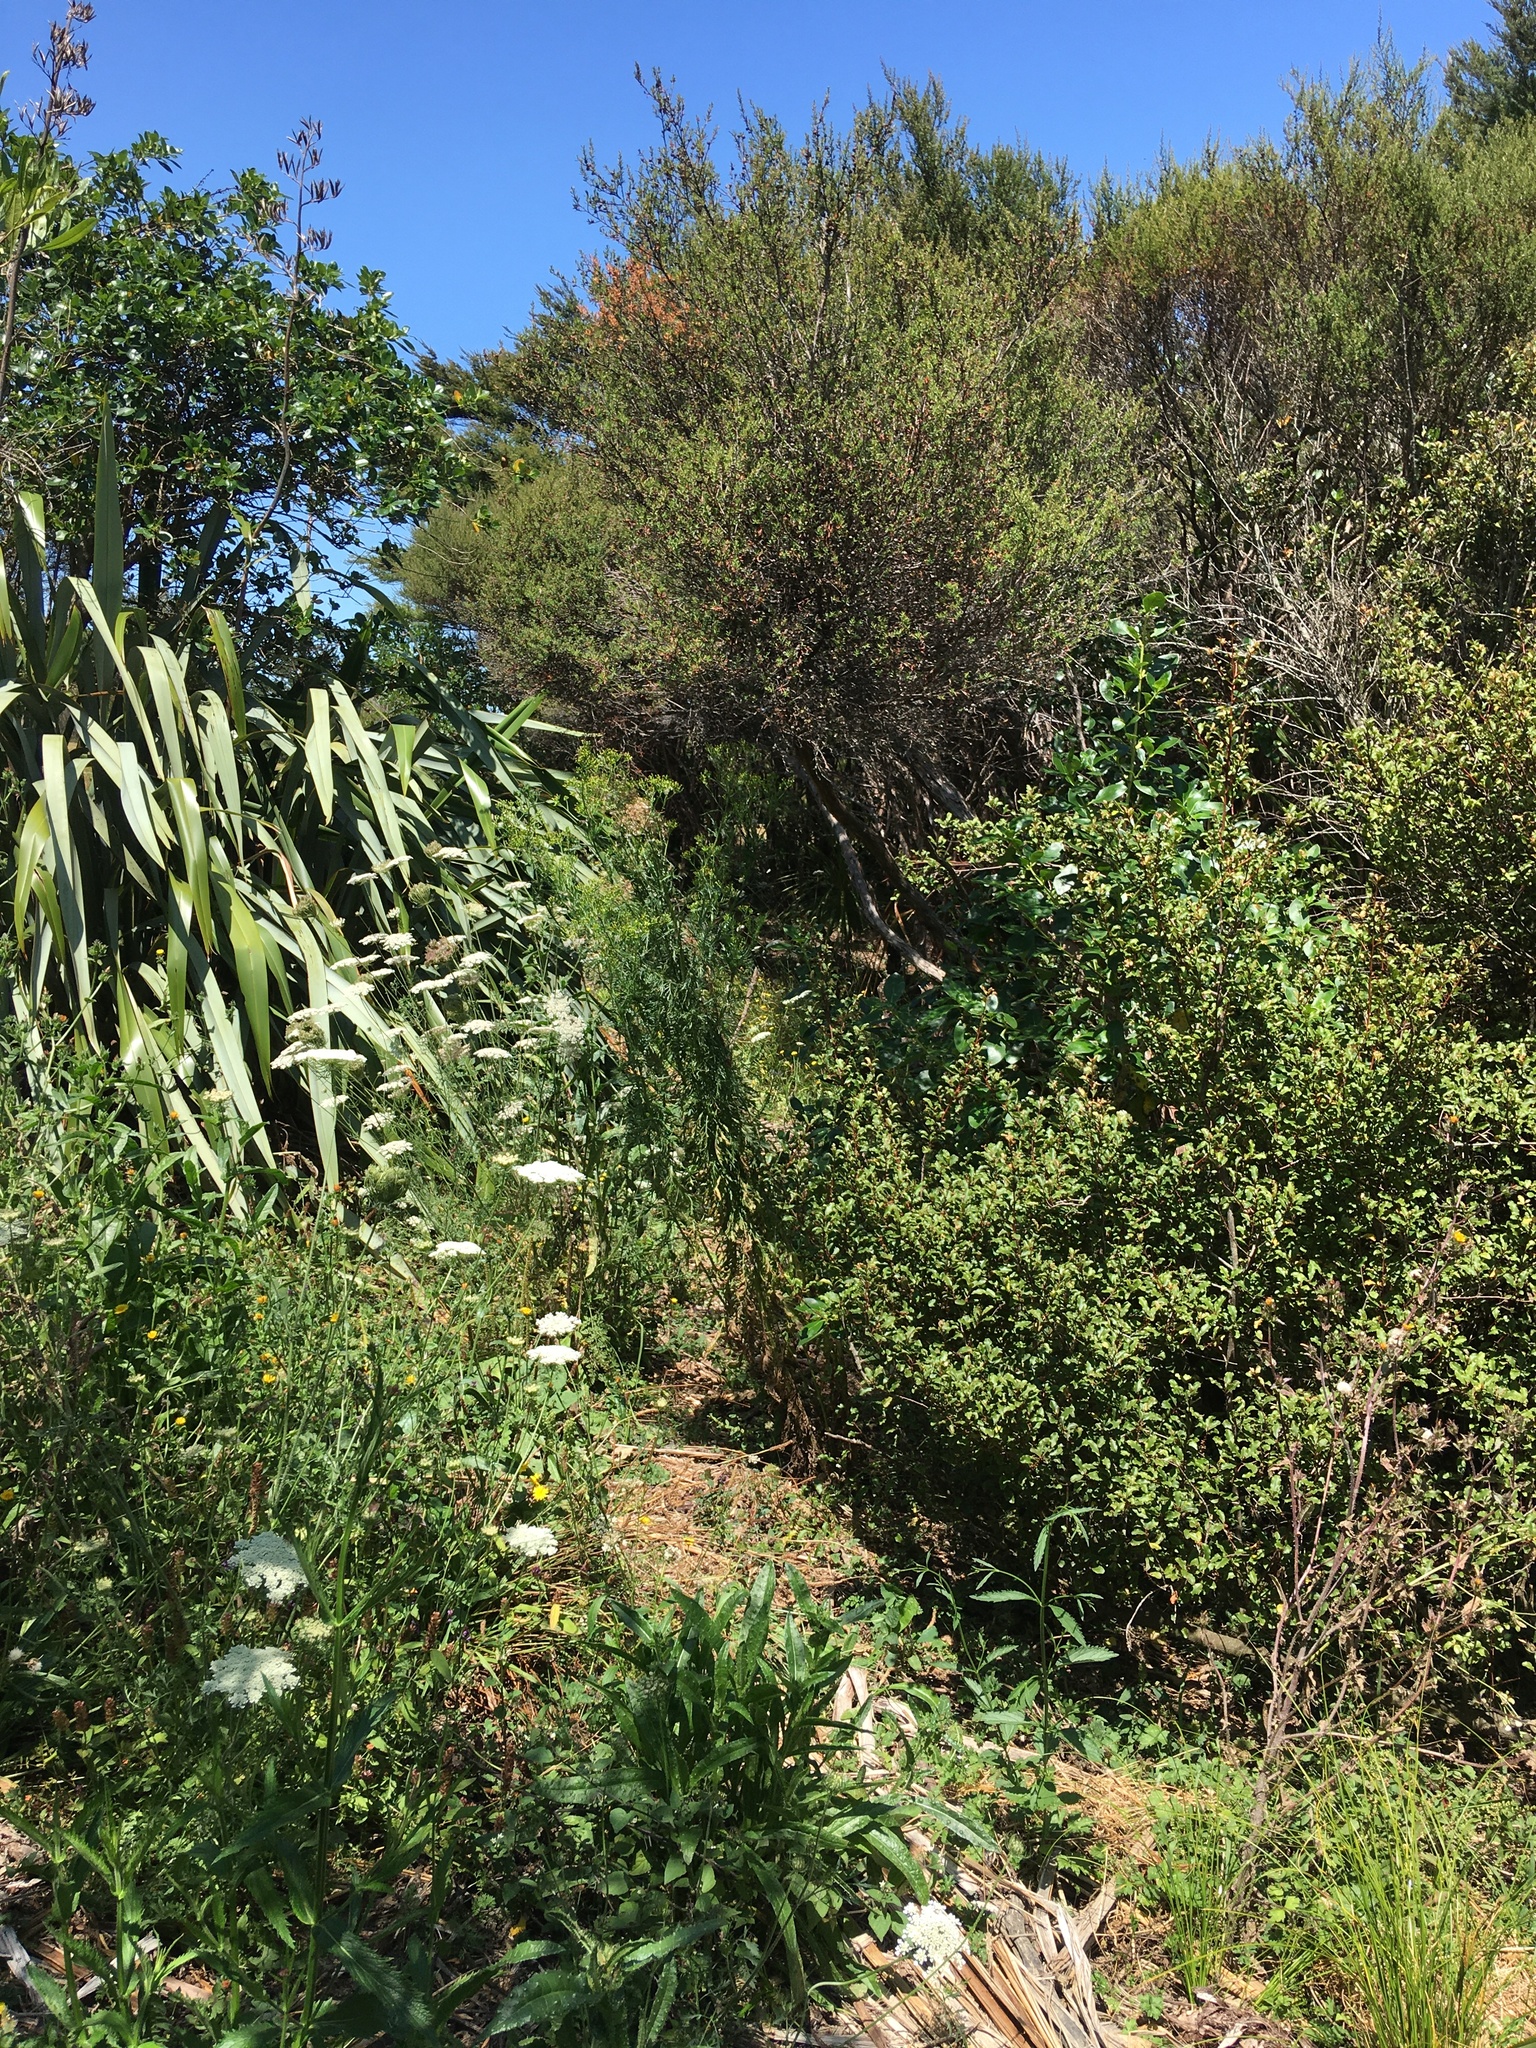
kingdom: Plantae
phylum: Tracheophyta
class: Magnoliopsida
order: Ericales
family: Primulaceae
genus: Myrsine
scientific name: Myrsine australis
